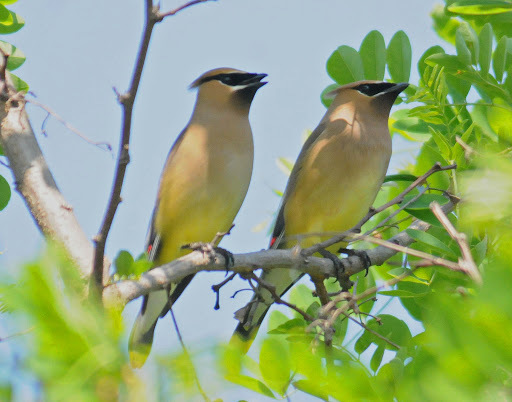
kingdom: Animalia
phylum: Chordata
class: Aves
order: Passeriformes
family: Bombycillidae
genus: Bombycilla
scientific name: Bombycilla cedrorum
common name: Cedar waxwing
